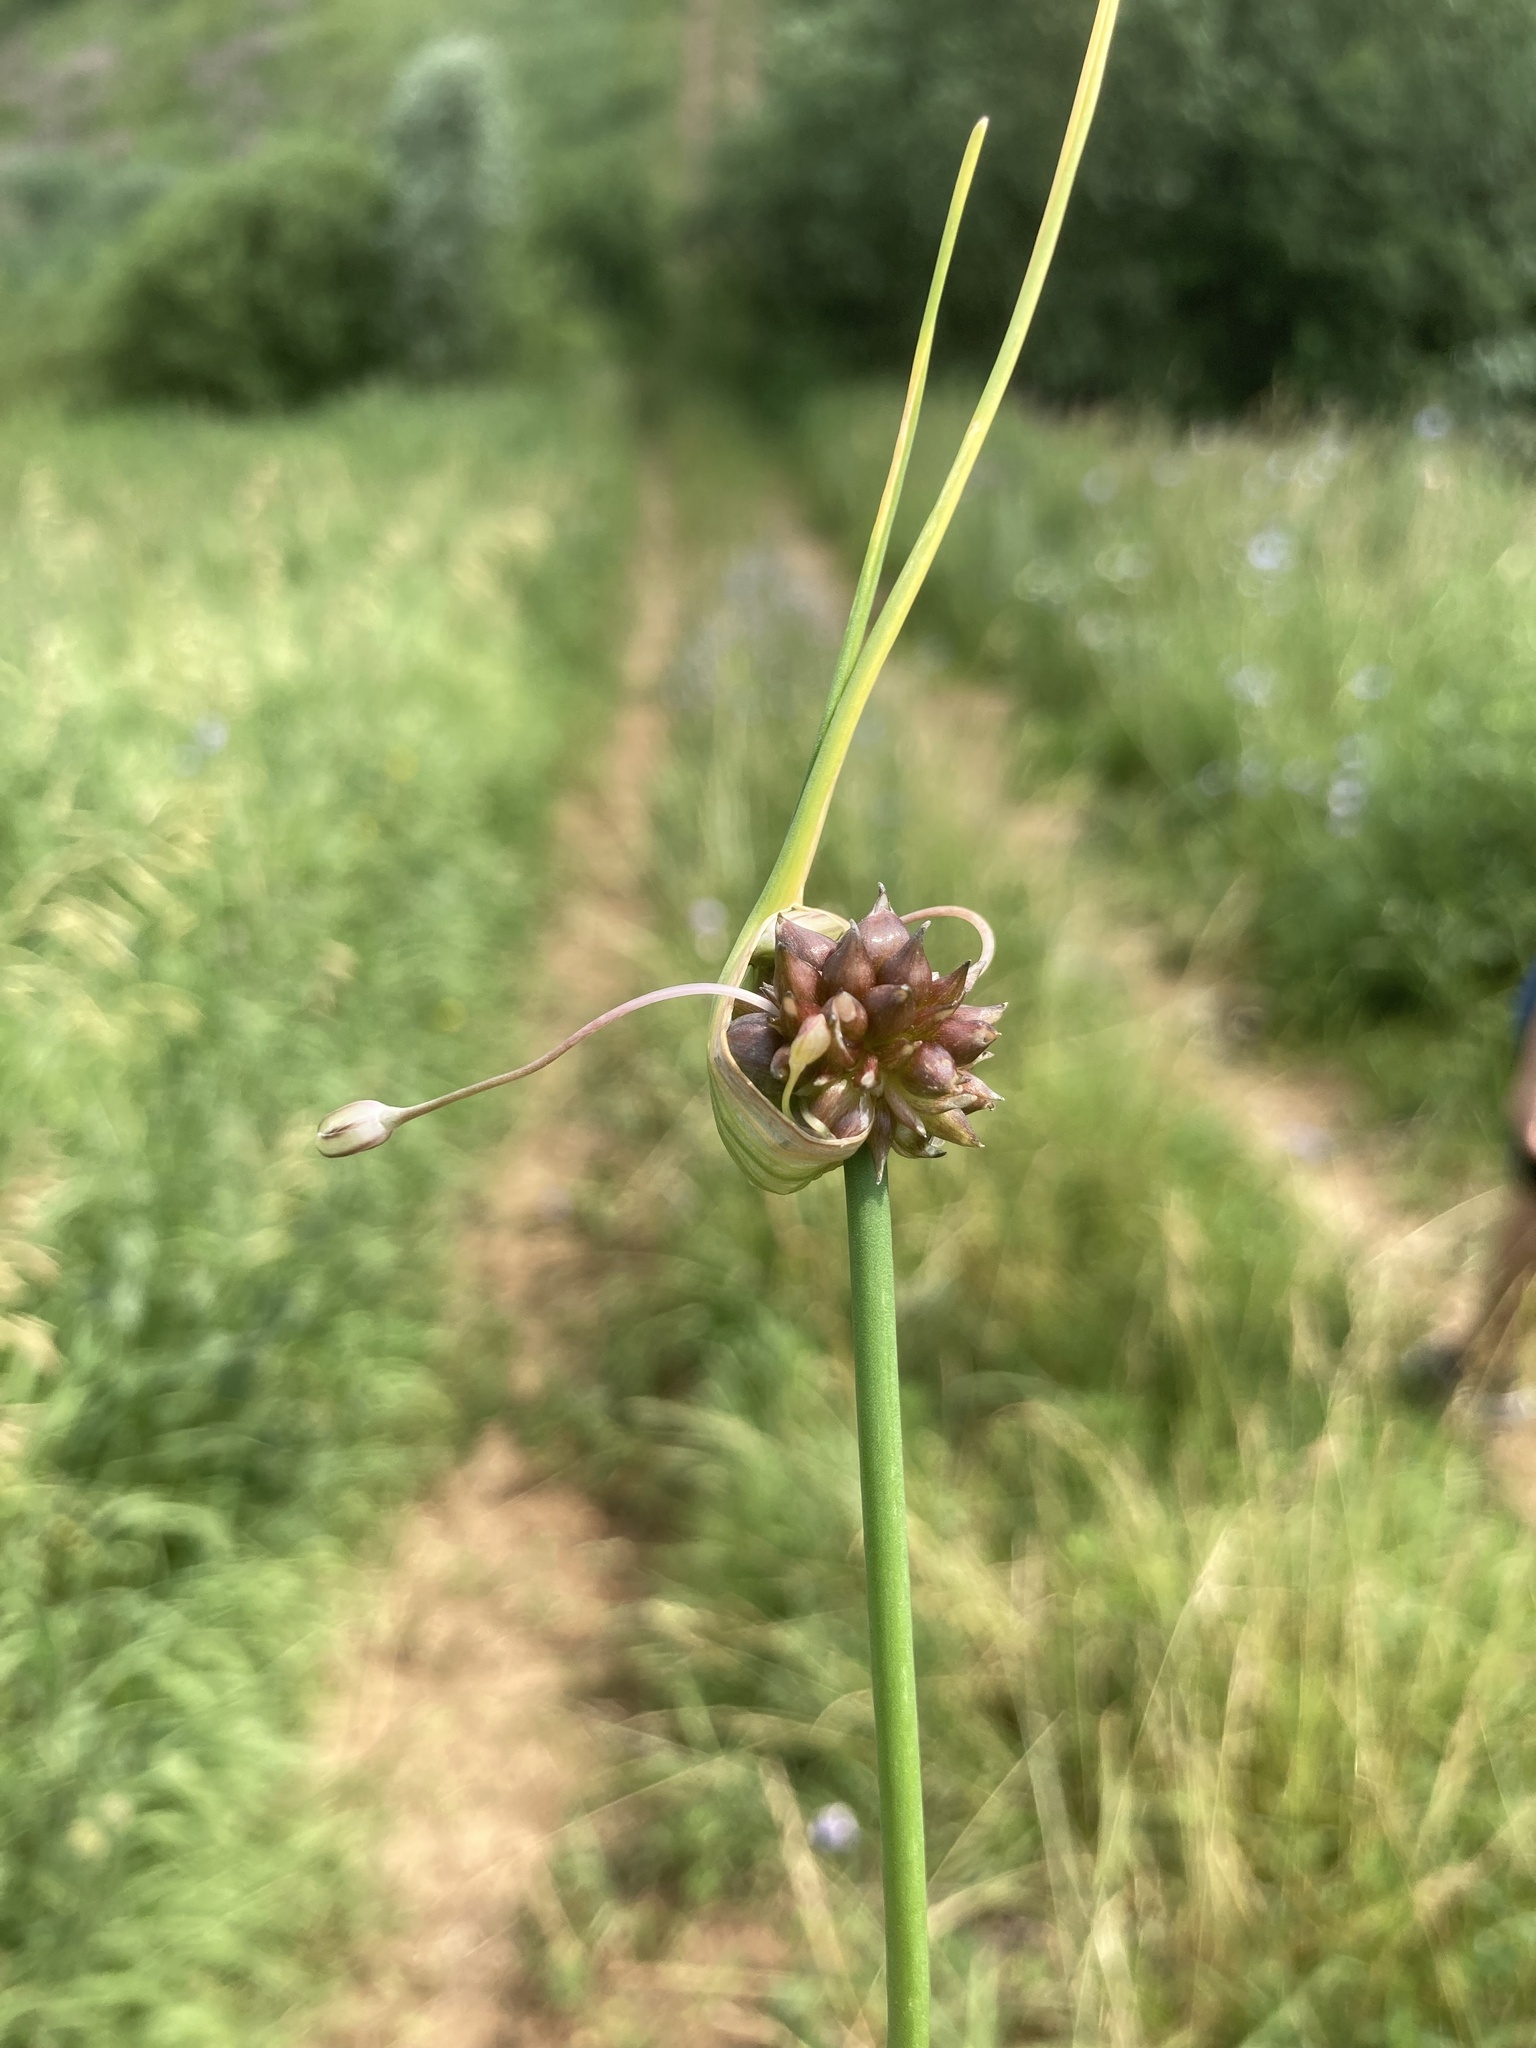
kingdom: Plantae
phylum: Tracheophyta
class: Liliopsida
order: Asparagales
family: Amaryllidaceae
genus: Allium
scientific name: Allium oleraceum
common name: Field garlic
